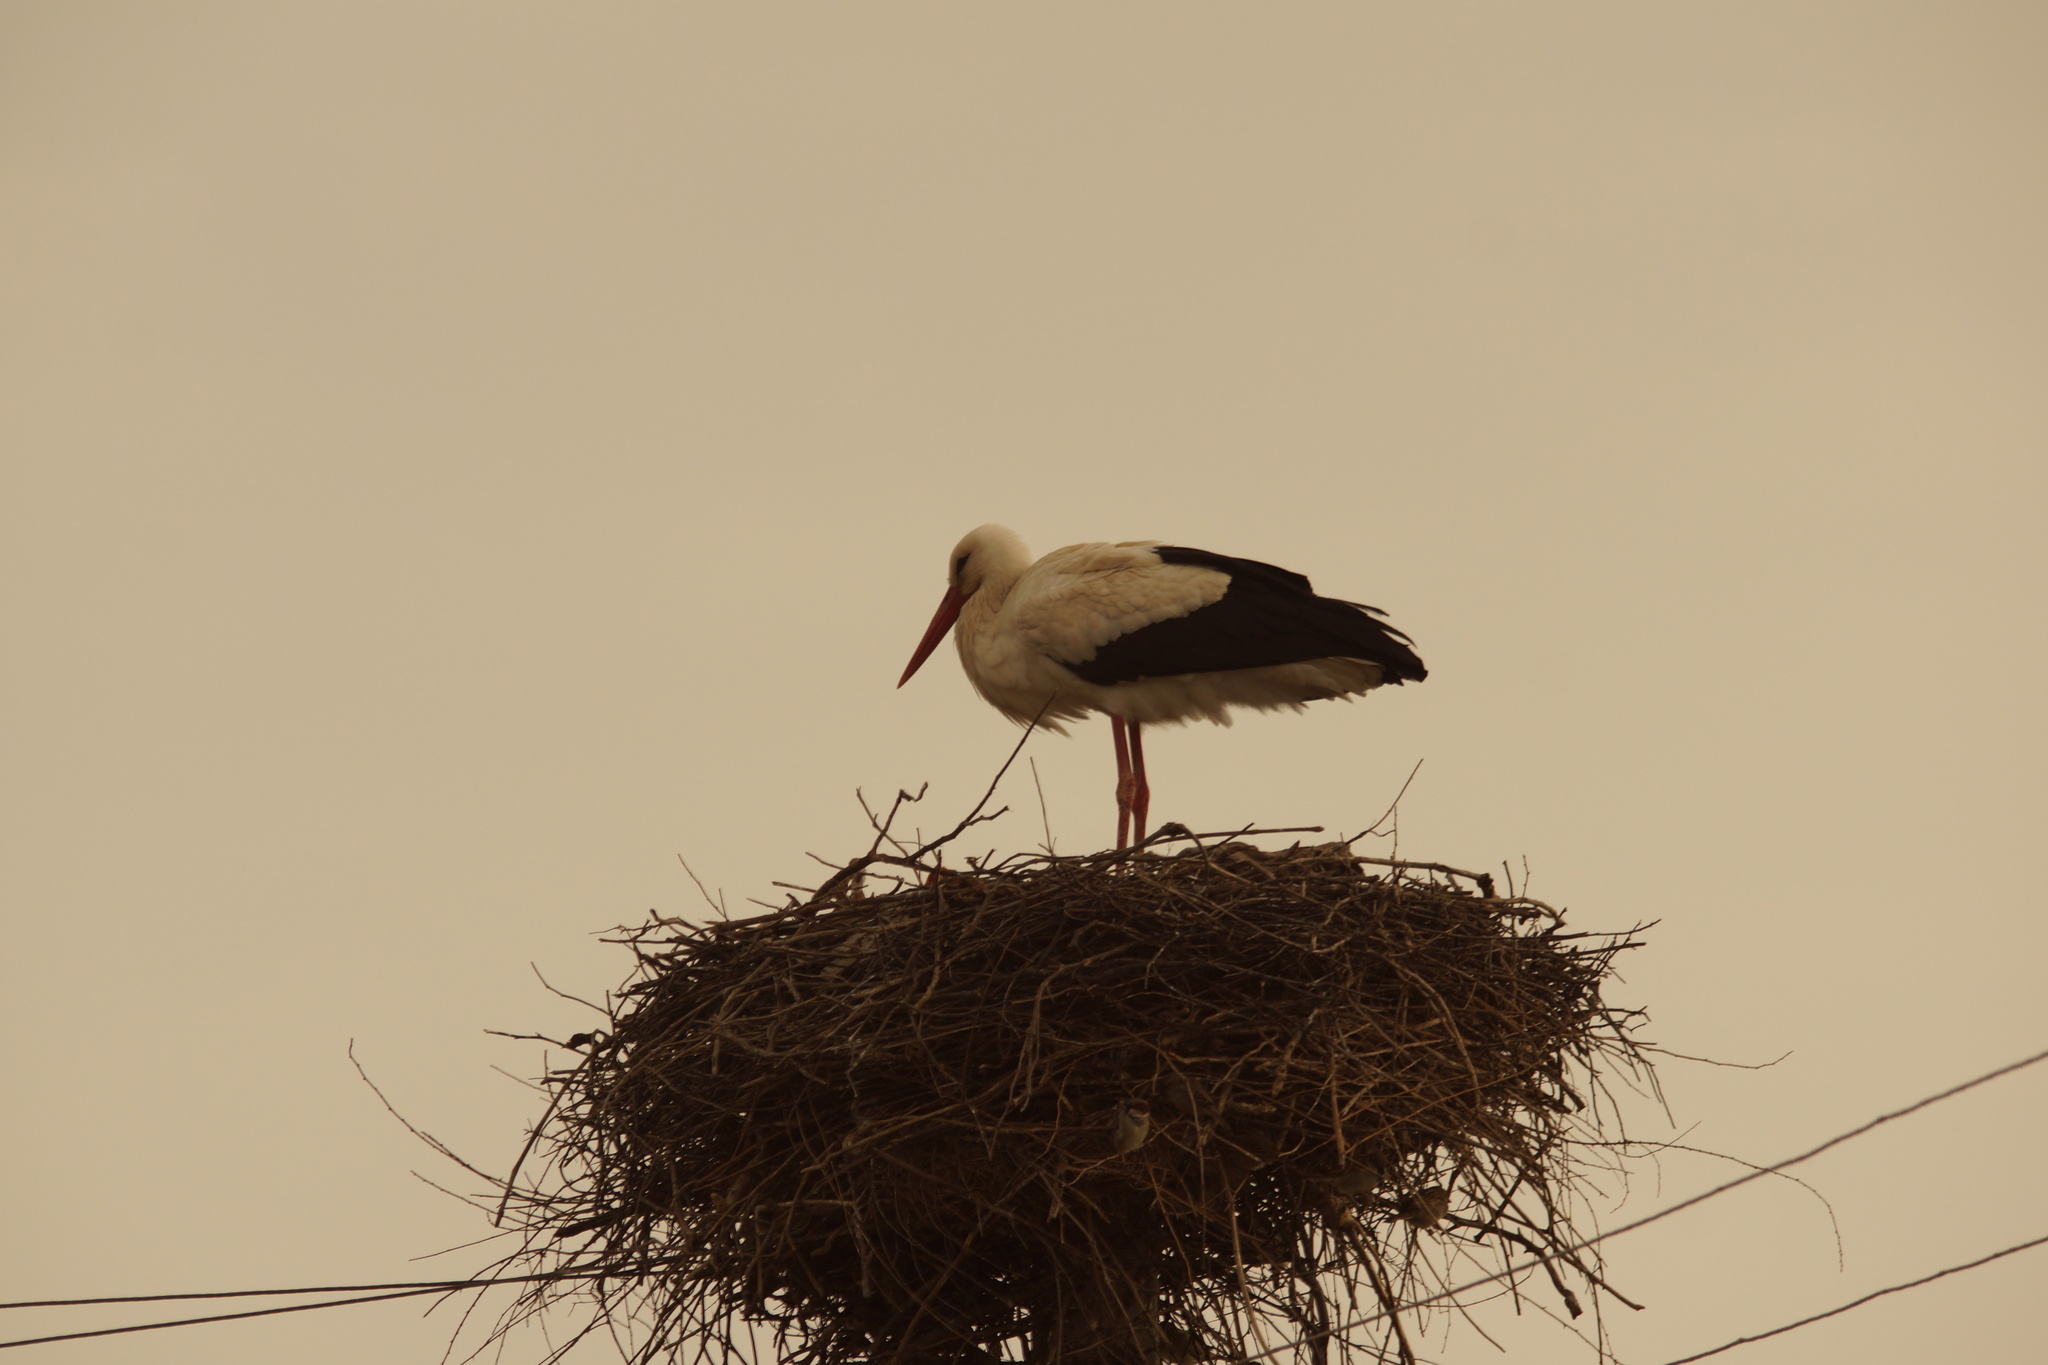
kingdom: Animalia
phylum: Chordata
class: Aves
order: Ciconiiformes
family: Ciconiidae
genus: Ciconia
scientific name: Ciconia ciconia
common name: White stork
